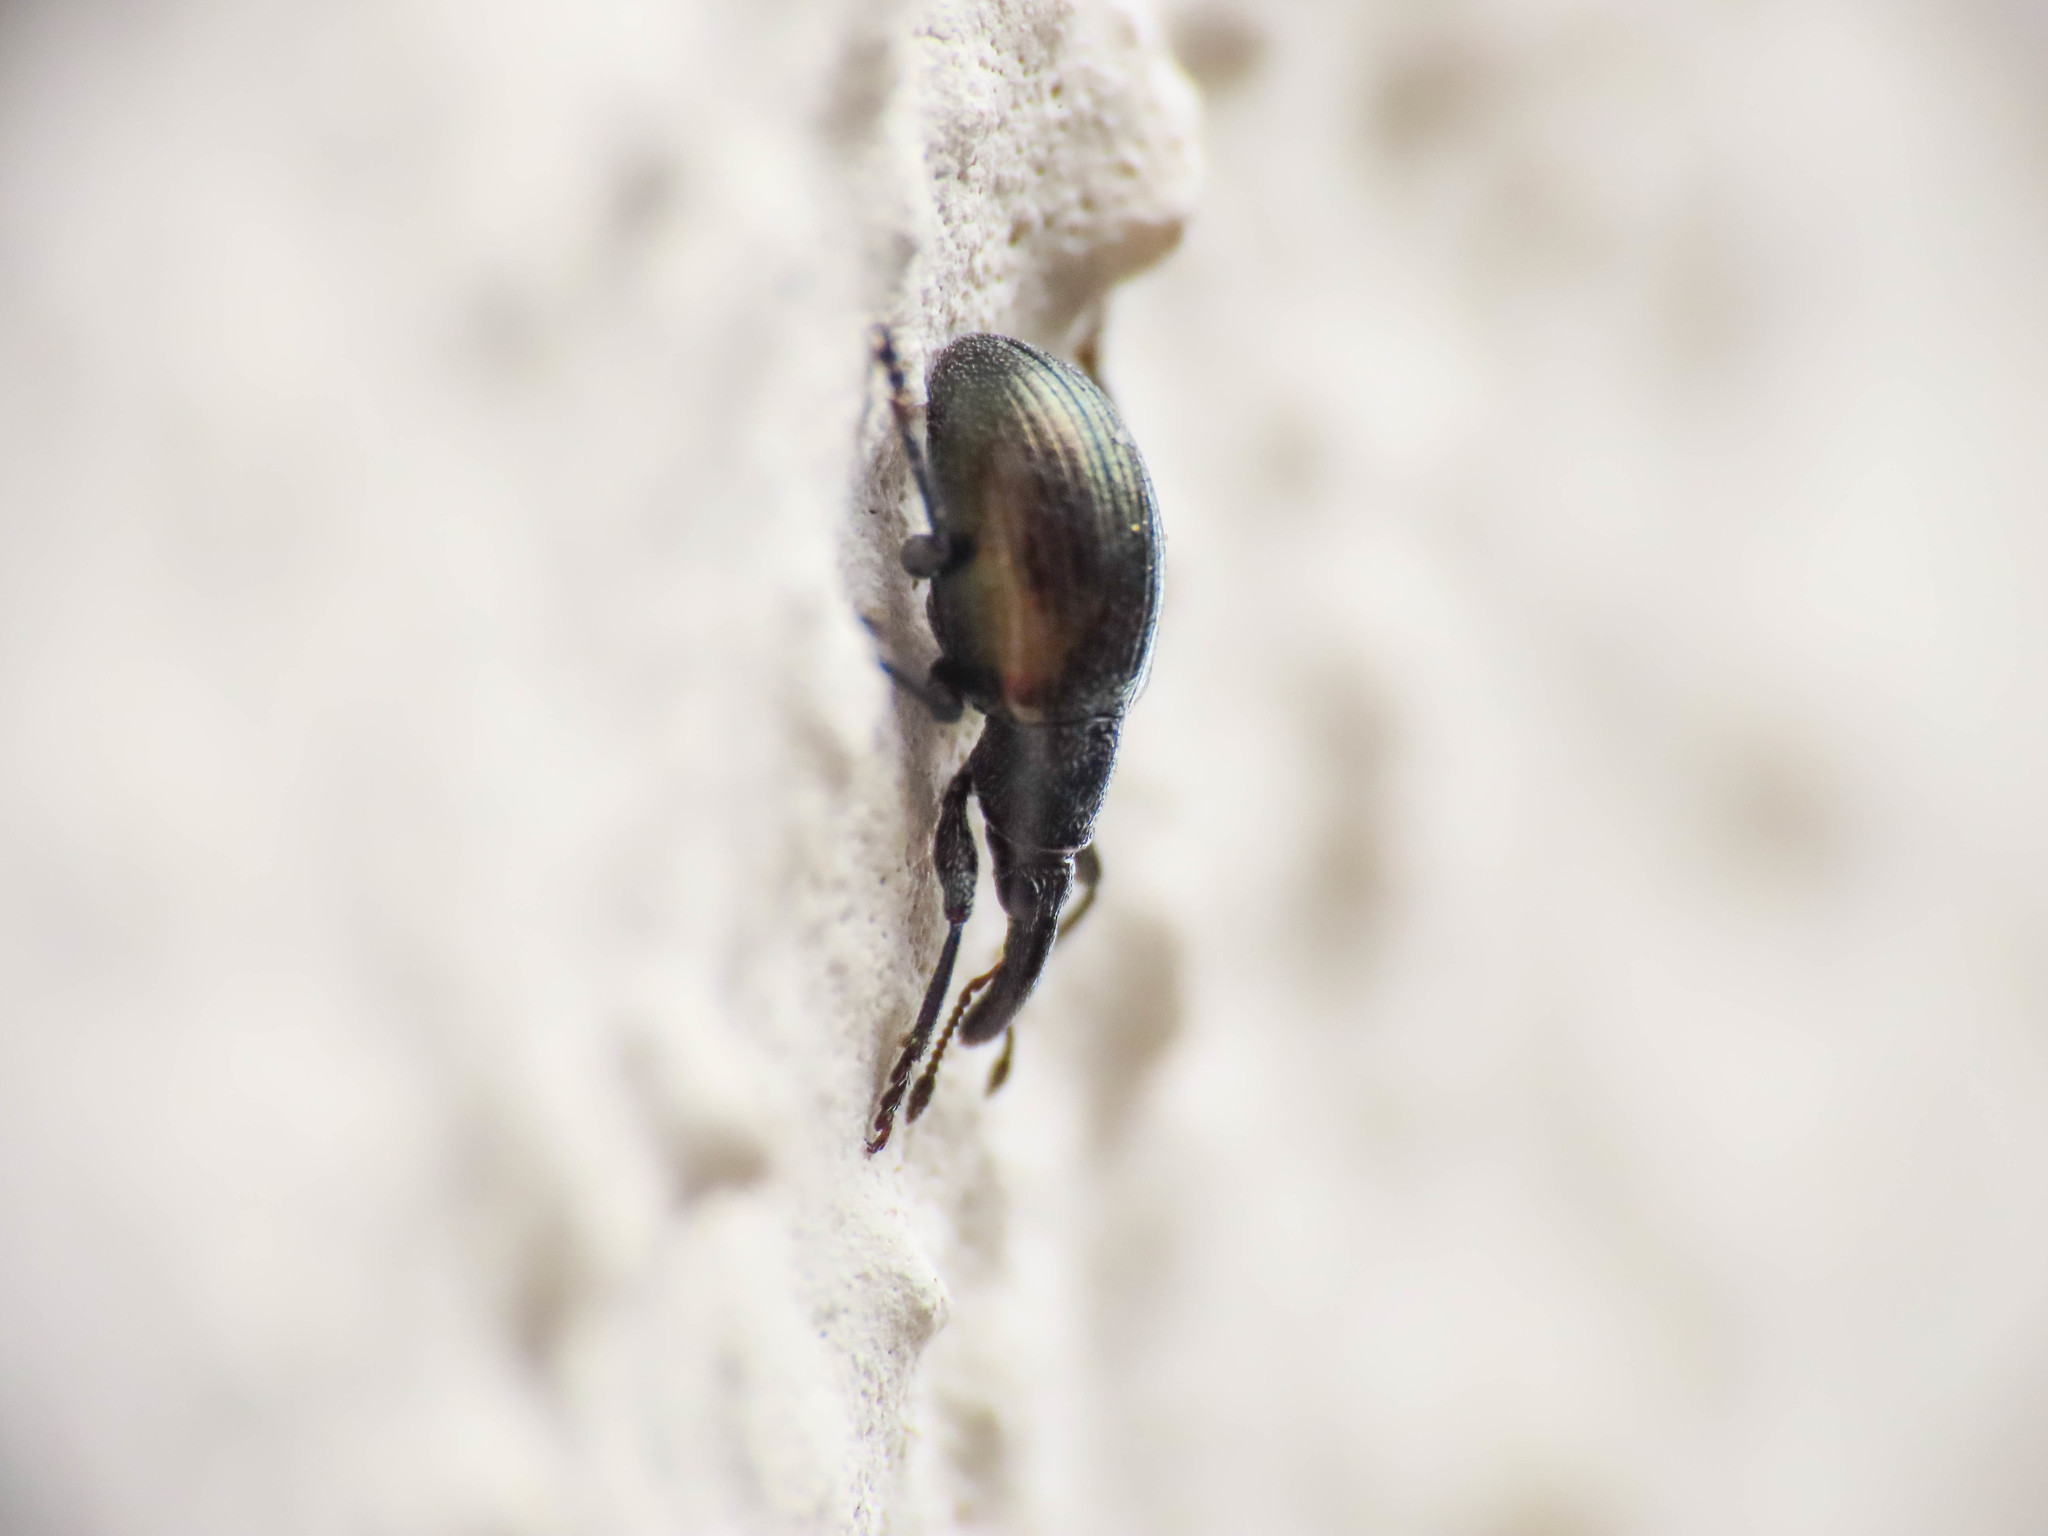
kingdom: Animalia
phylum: Arthropoda
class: Insecta
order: Coleoptera
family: Curculionidae
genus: Sphenomorpha
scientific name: Sphenomorpha aenea
